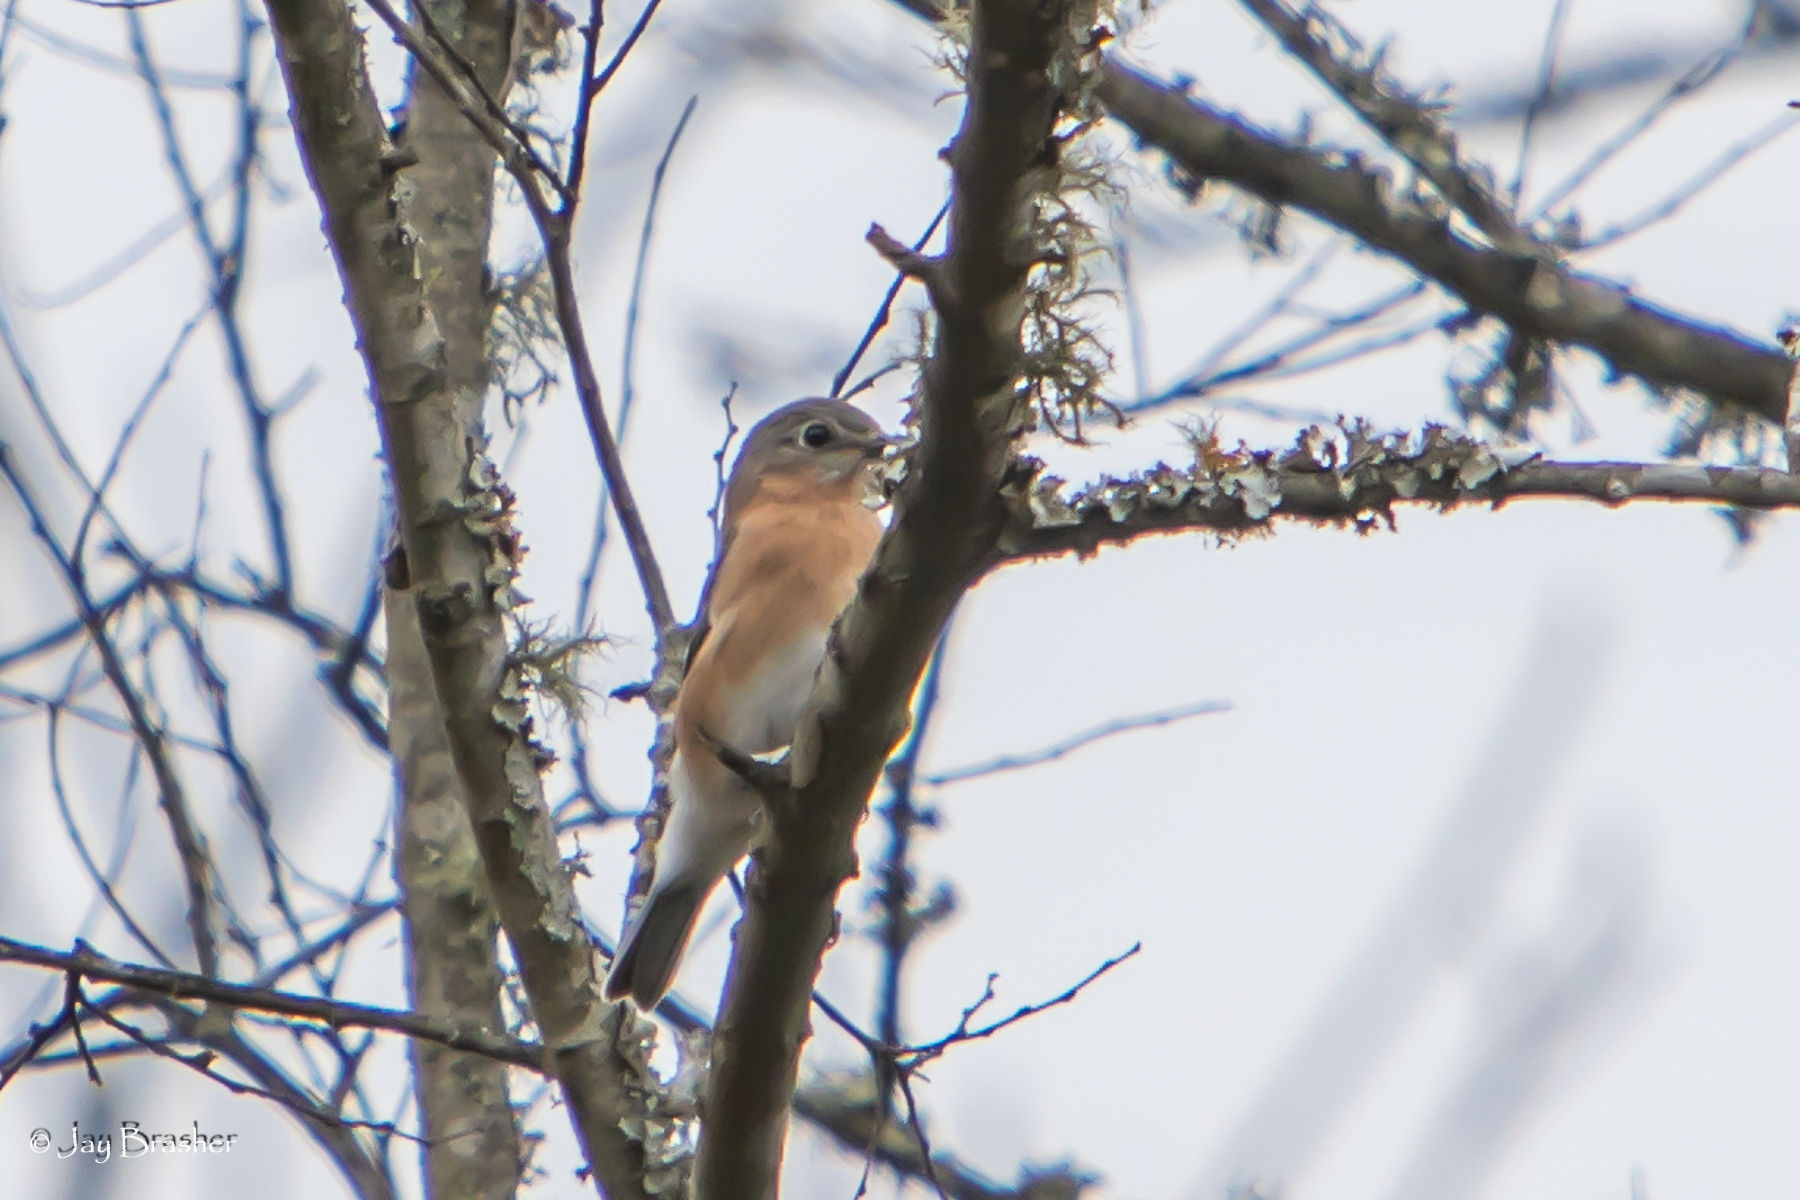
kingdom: Animalia
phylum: Chordata
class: Aves
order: Passeriformes
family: Turdidae
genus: Sialia
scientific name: Sialia sialis
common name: Eastern bluebird
